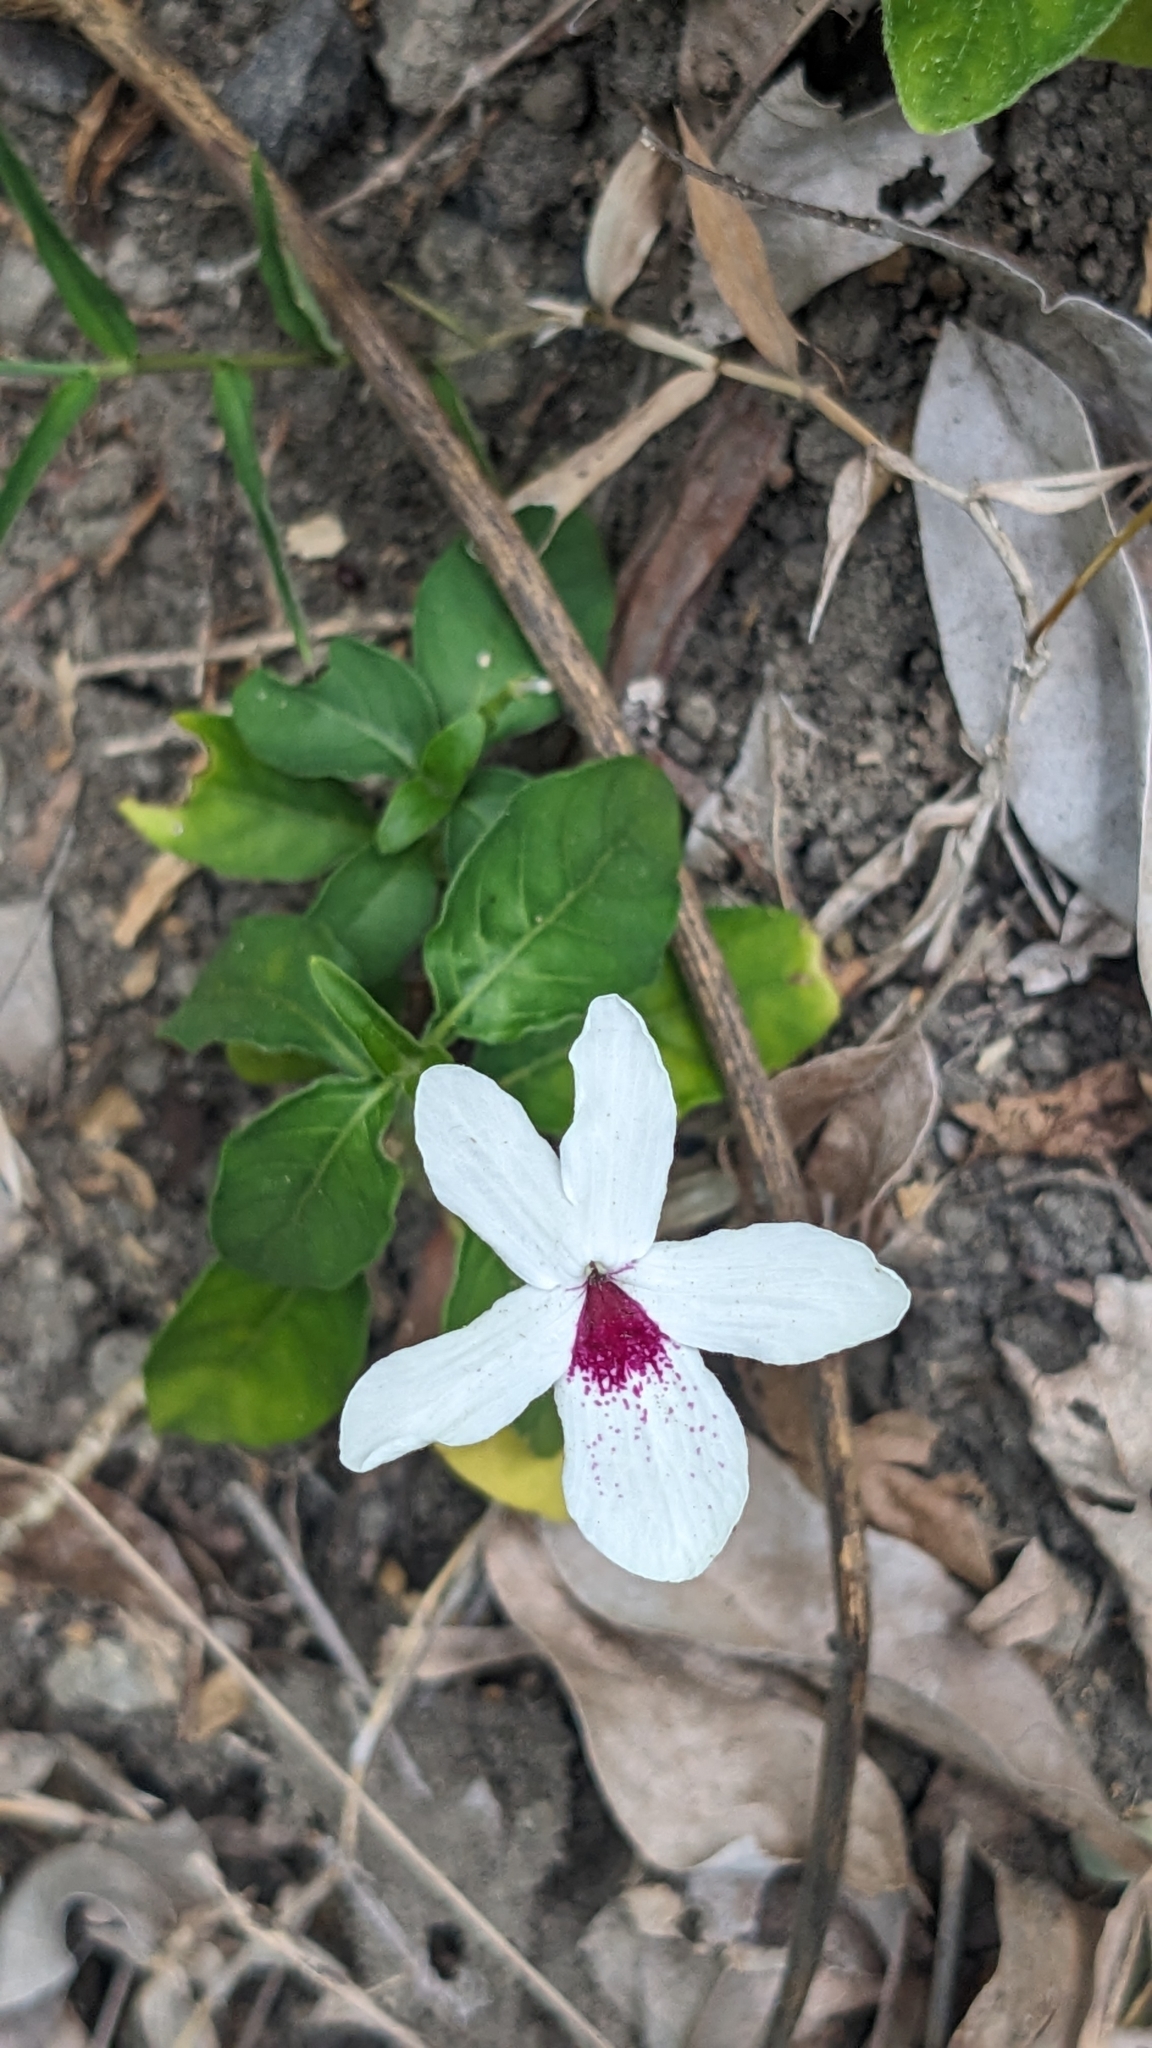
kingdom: Plantae
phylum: Tracheophyta
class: Magnoliopsida
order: Lamiales
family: Acanthaceae
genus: Pseuderanthemum
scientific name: Pseuderanthemum bicolor
